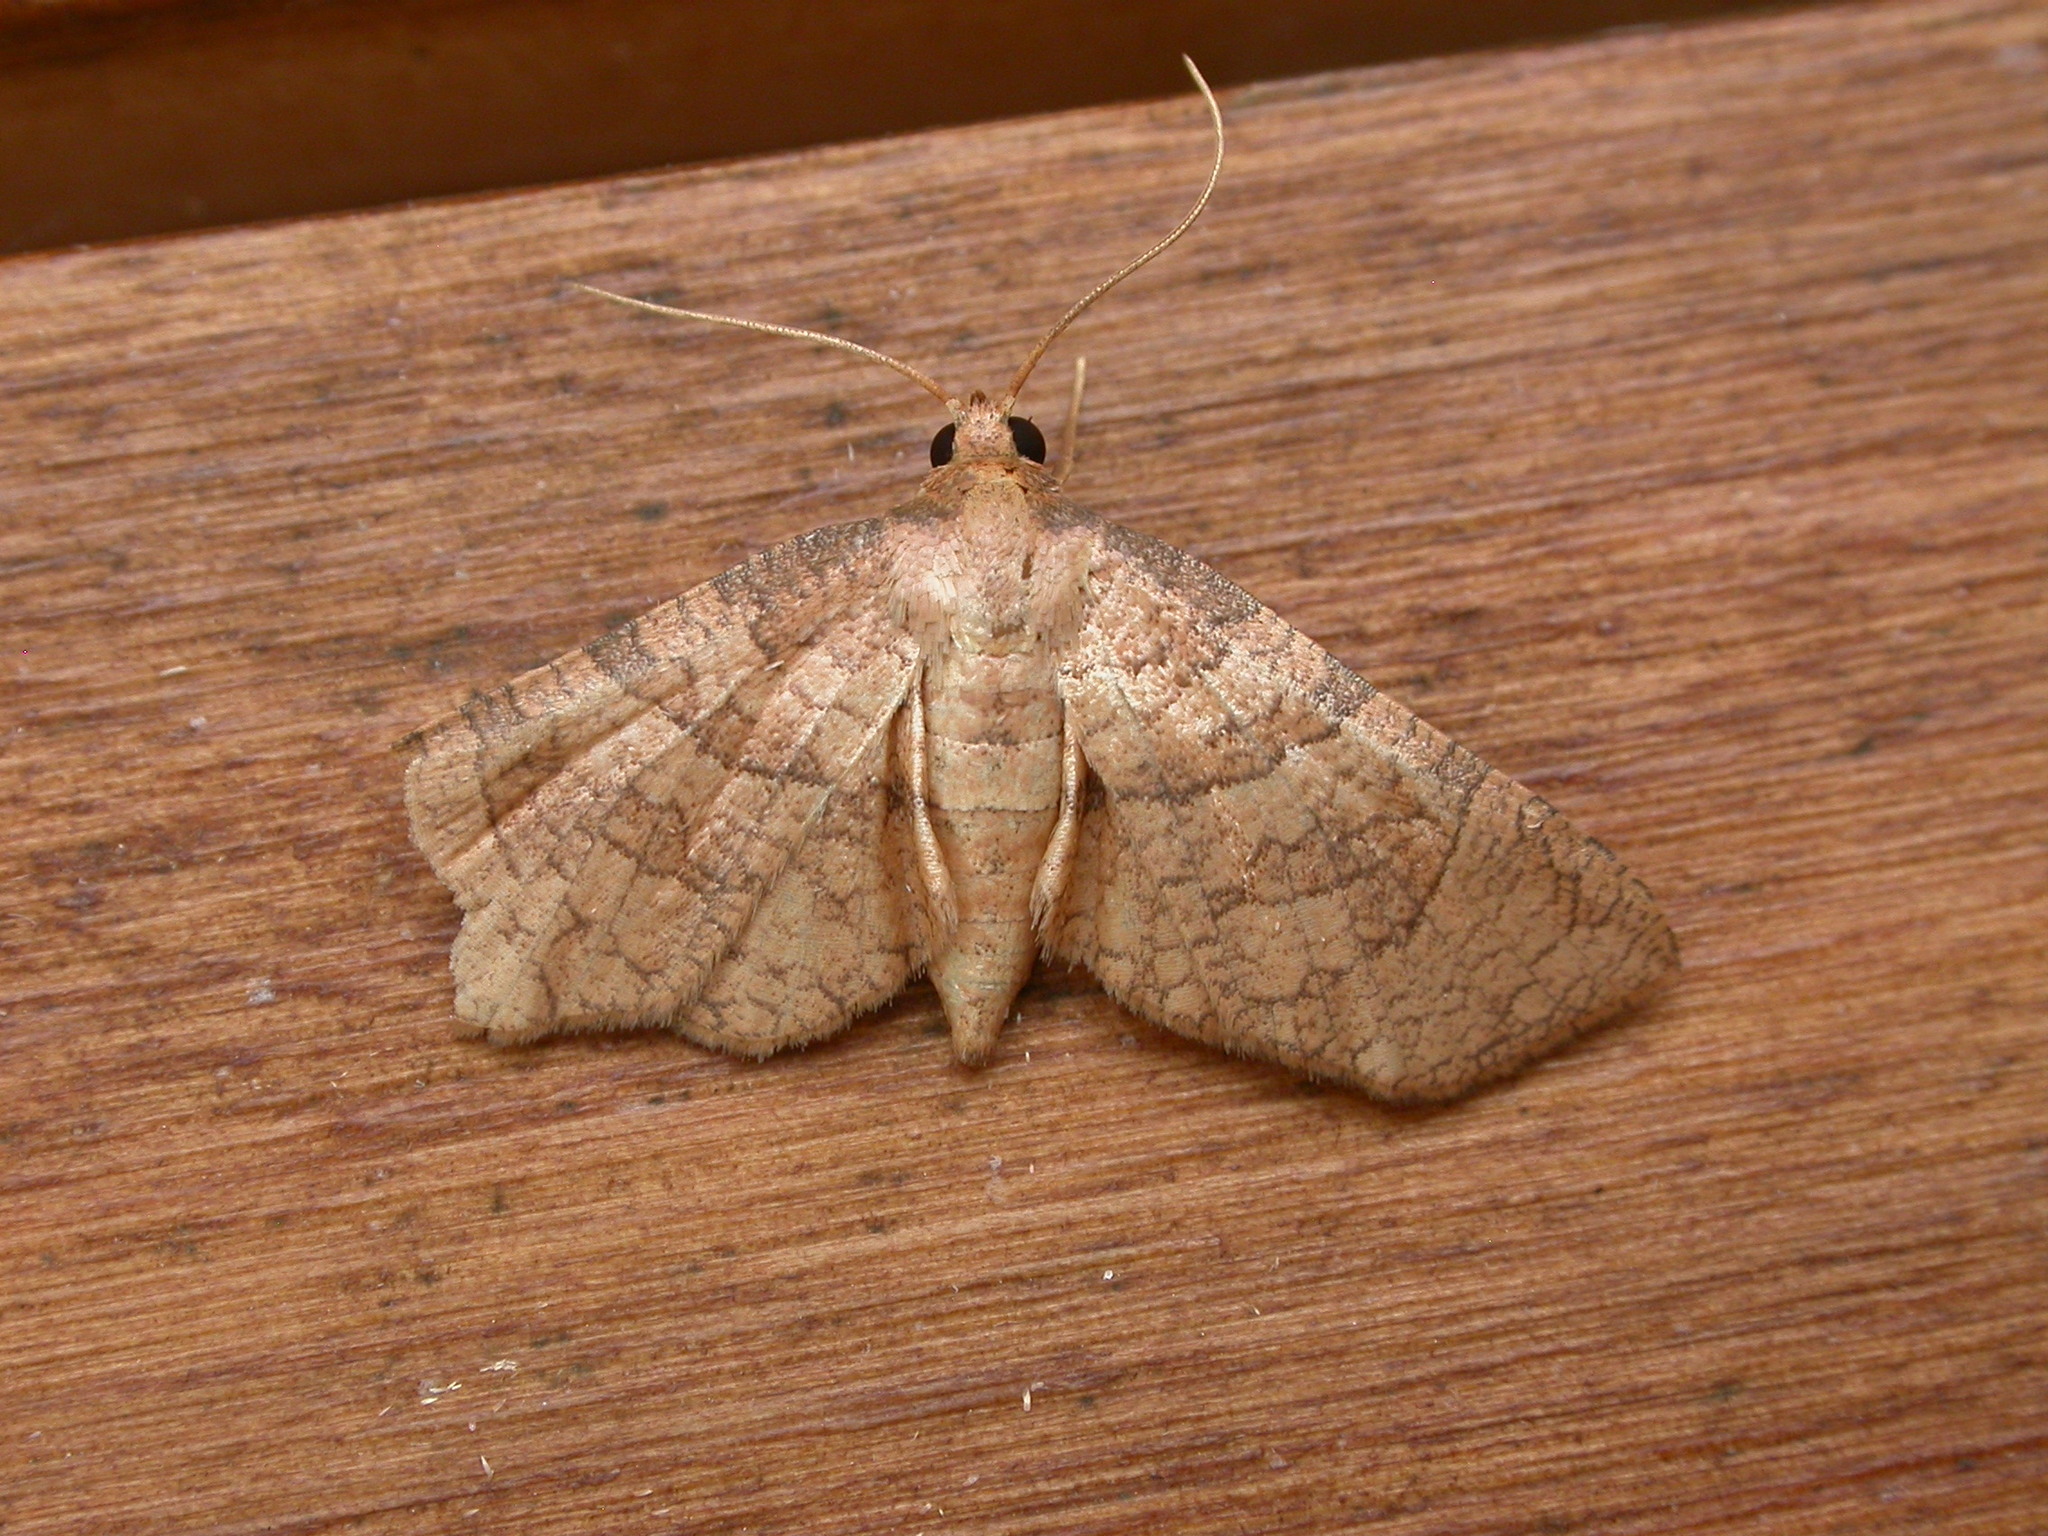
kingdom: Animalia
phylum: Arthropoda
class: Insecta
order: Lepidoptera
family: Thyrididae
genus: Mellea
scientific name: Mellea ordinaria
